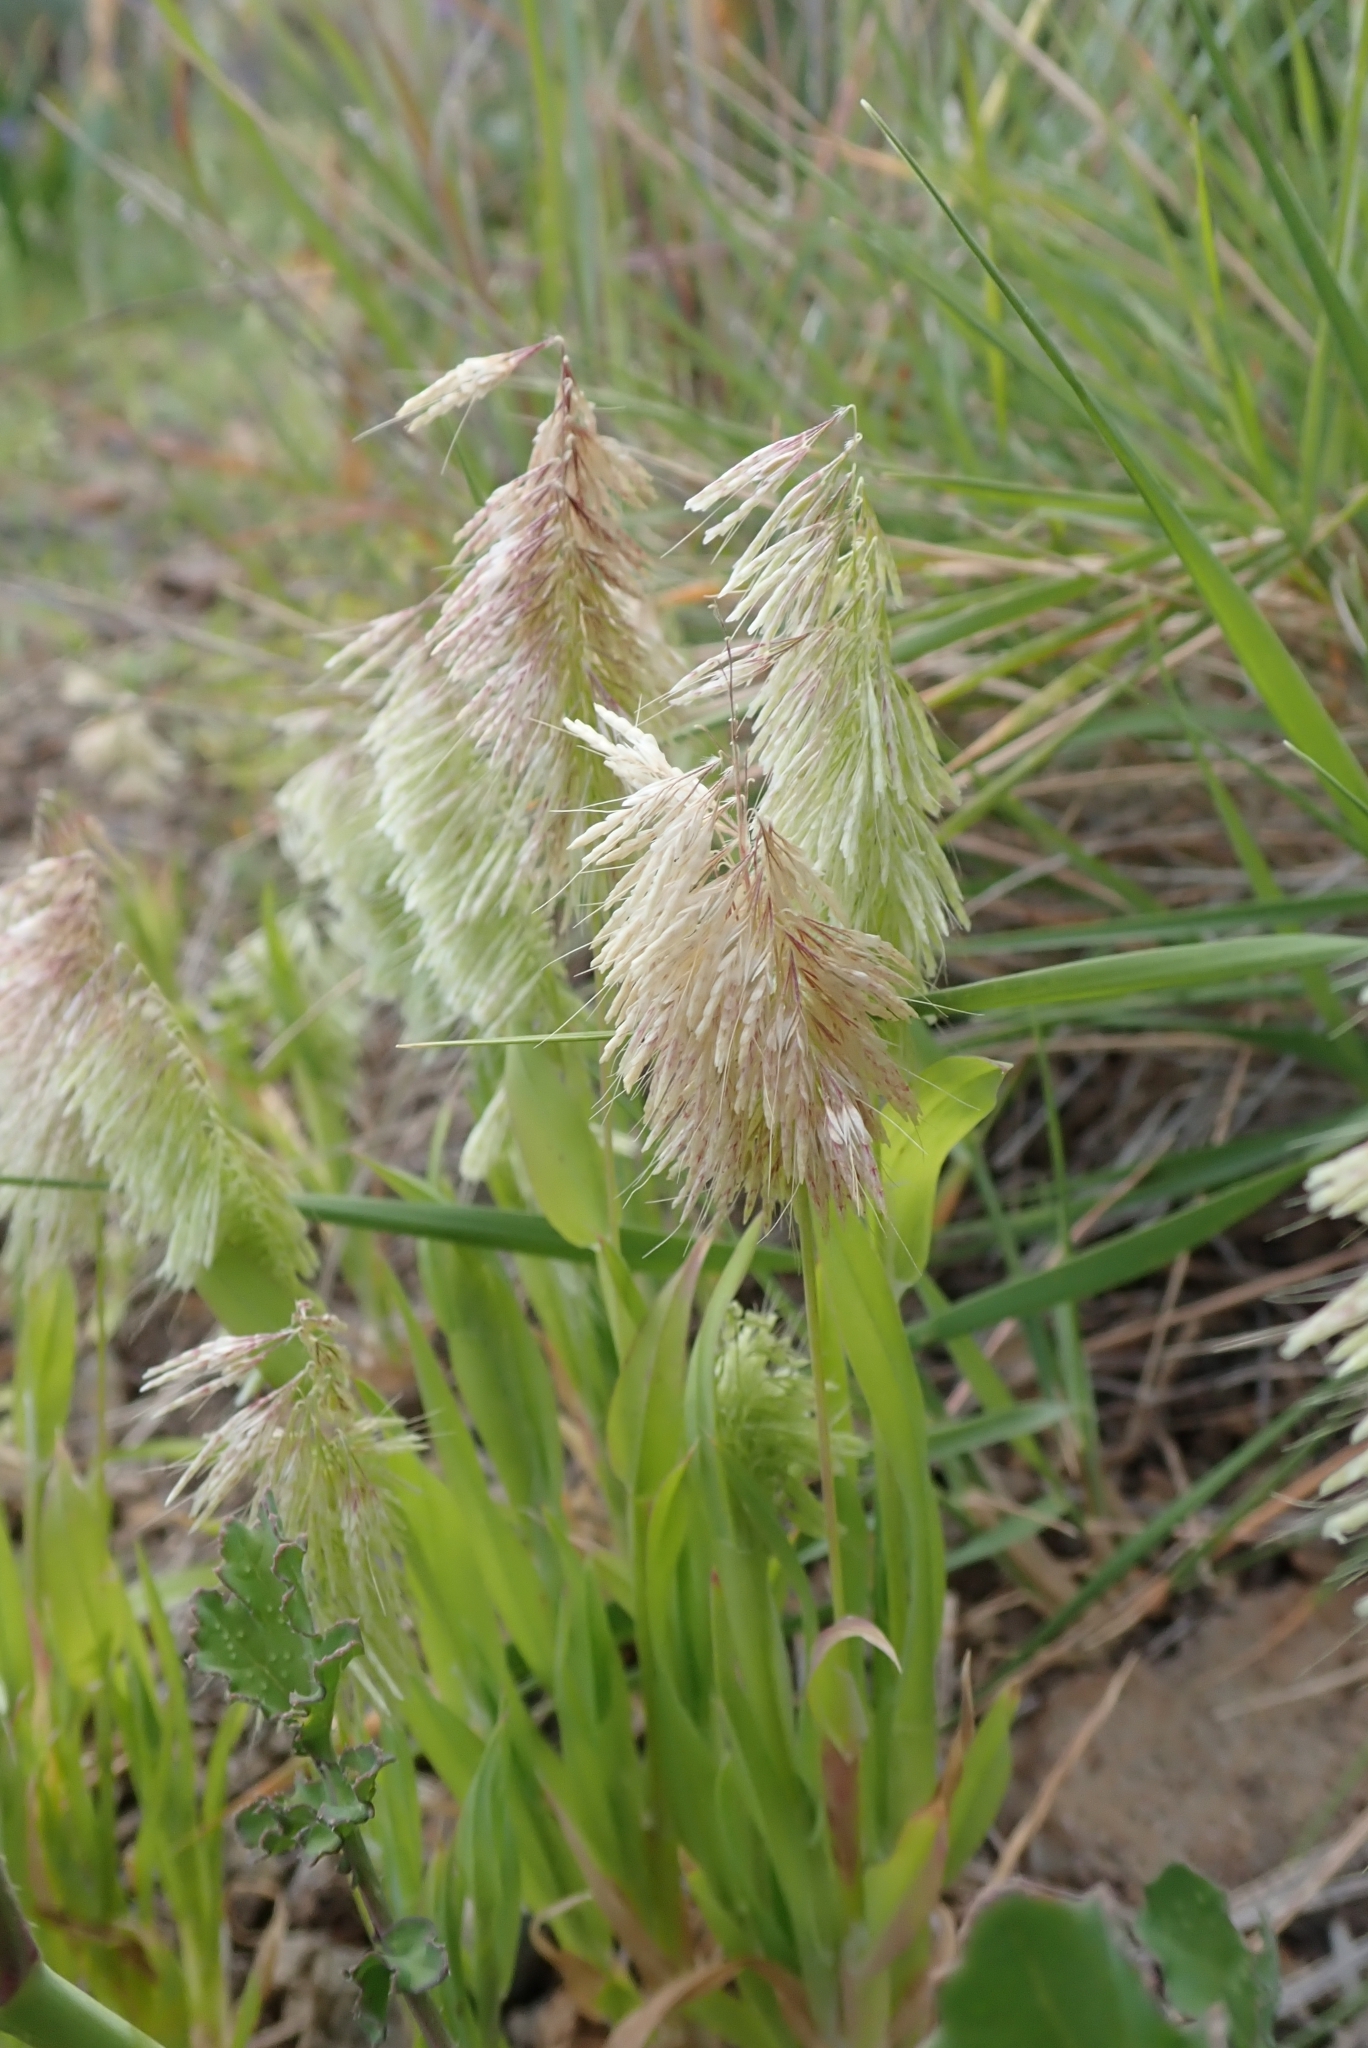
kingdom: Plantae
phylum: Tracheophyta
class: Liliopsida
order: Poales
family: Poaceae
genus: Lamarckia
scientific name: Lamarckia aurea
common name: Golden dog's-tail
